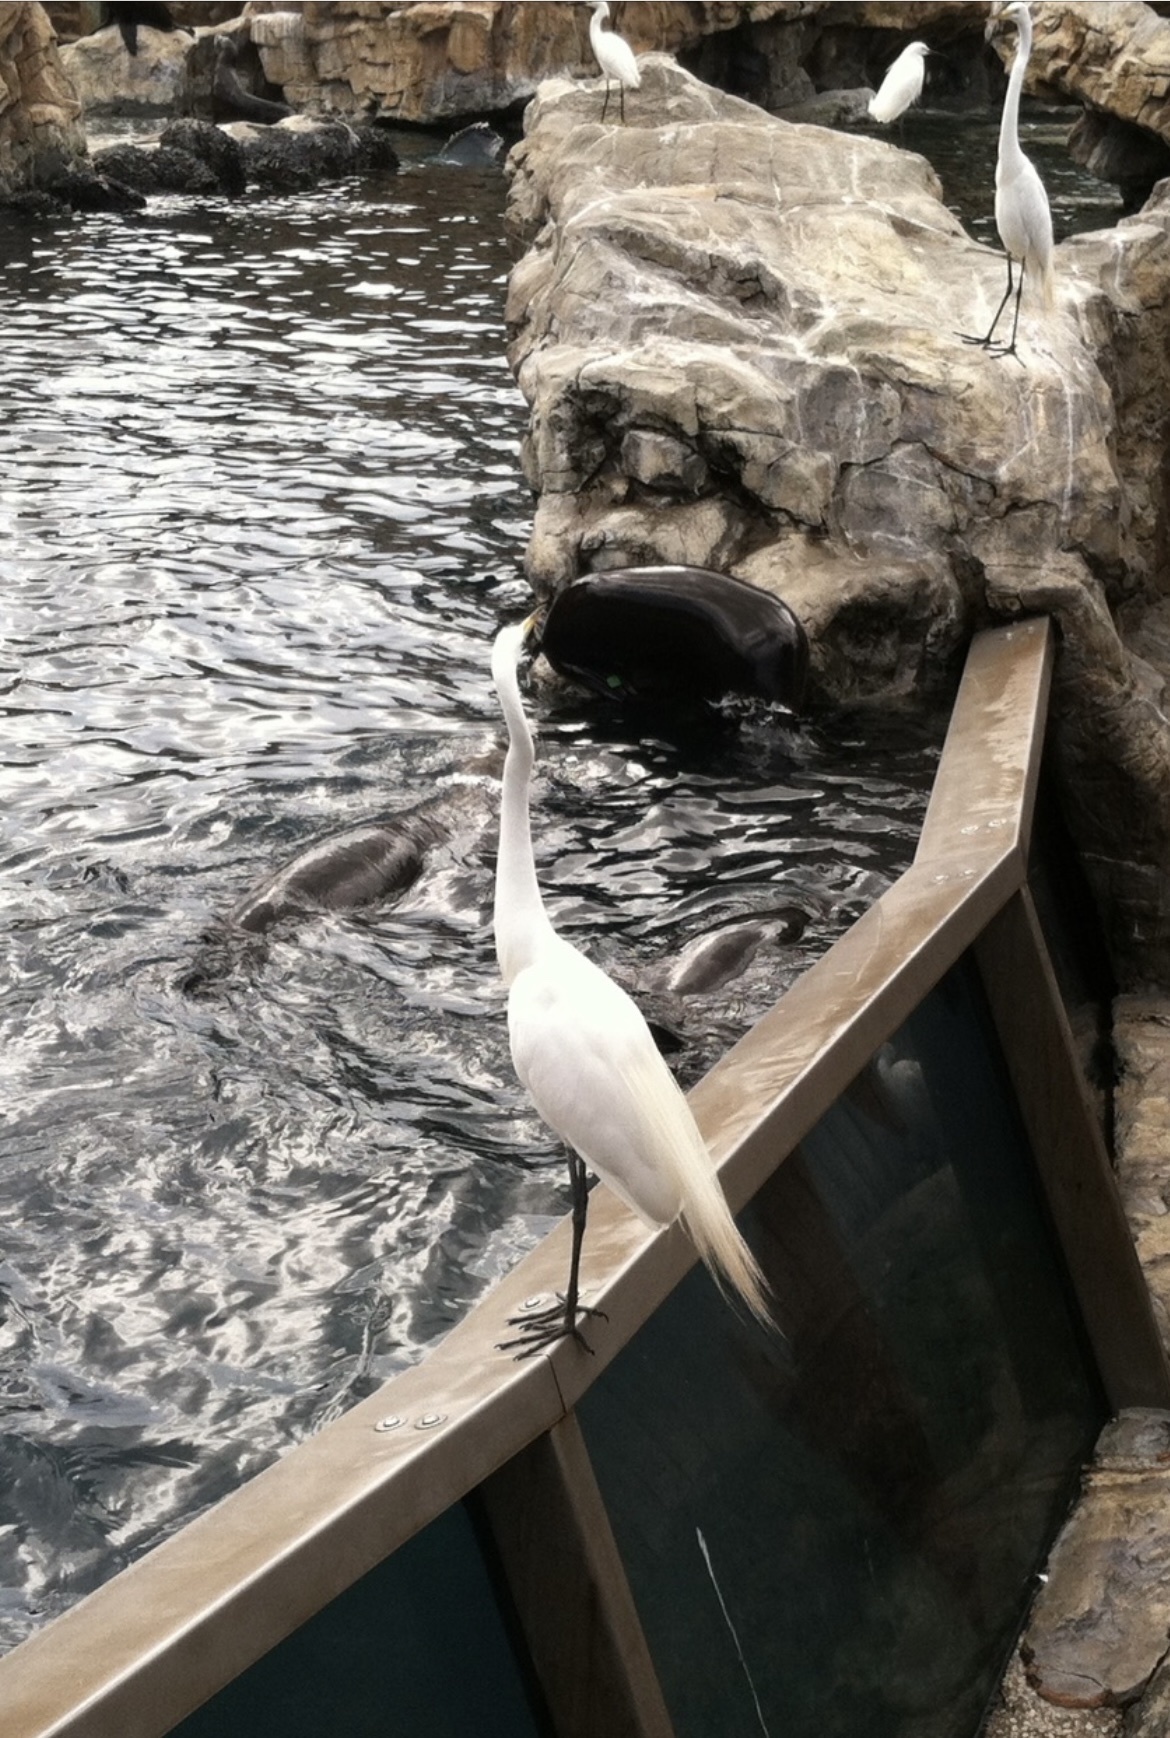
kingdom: Animalia
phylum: Chordata
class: Aves
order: Pelecaniformes
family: Ardeidae
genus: Ardea
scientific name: Ardea alba
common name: Great egret
